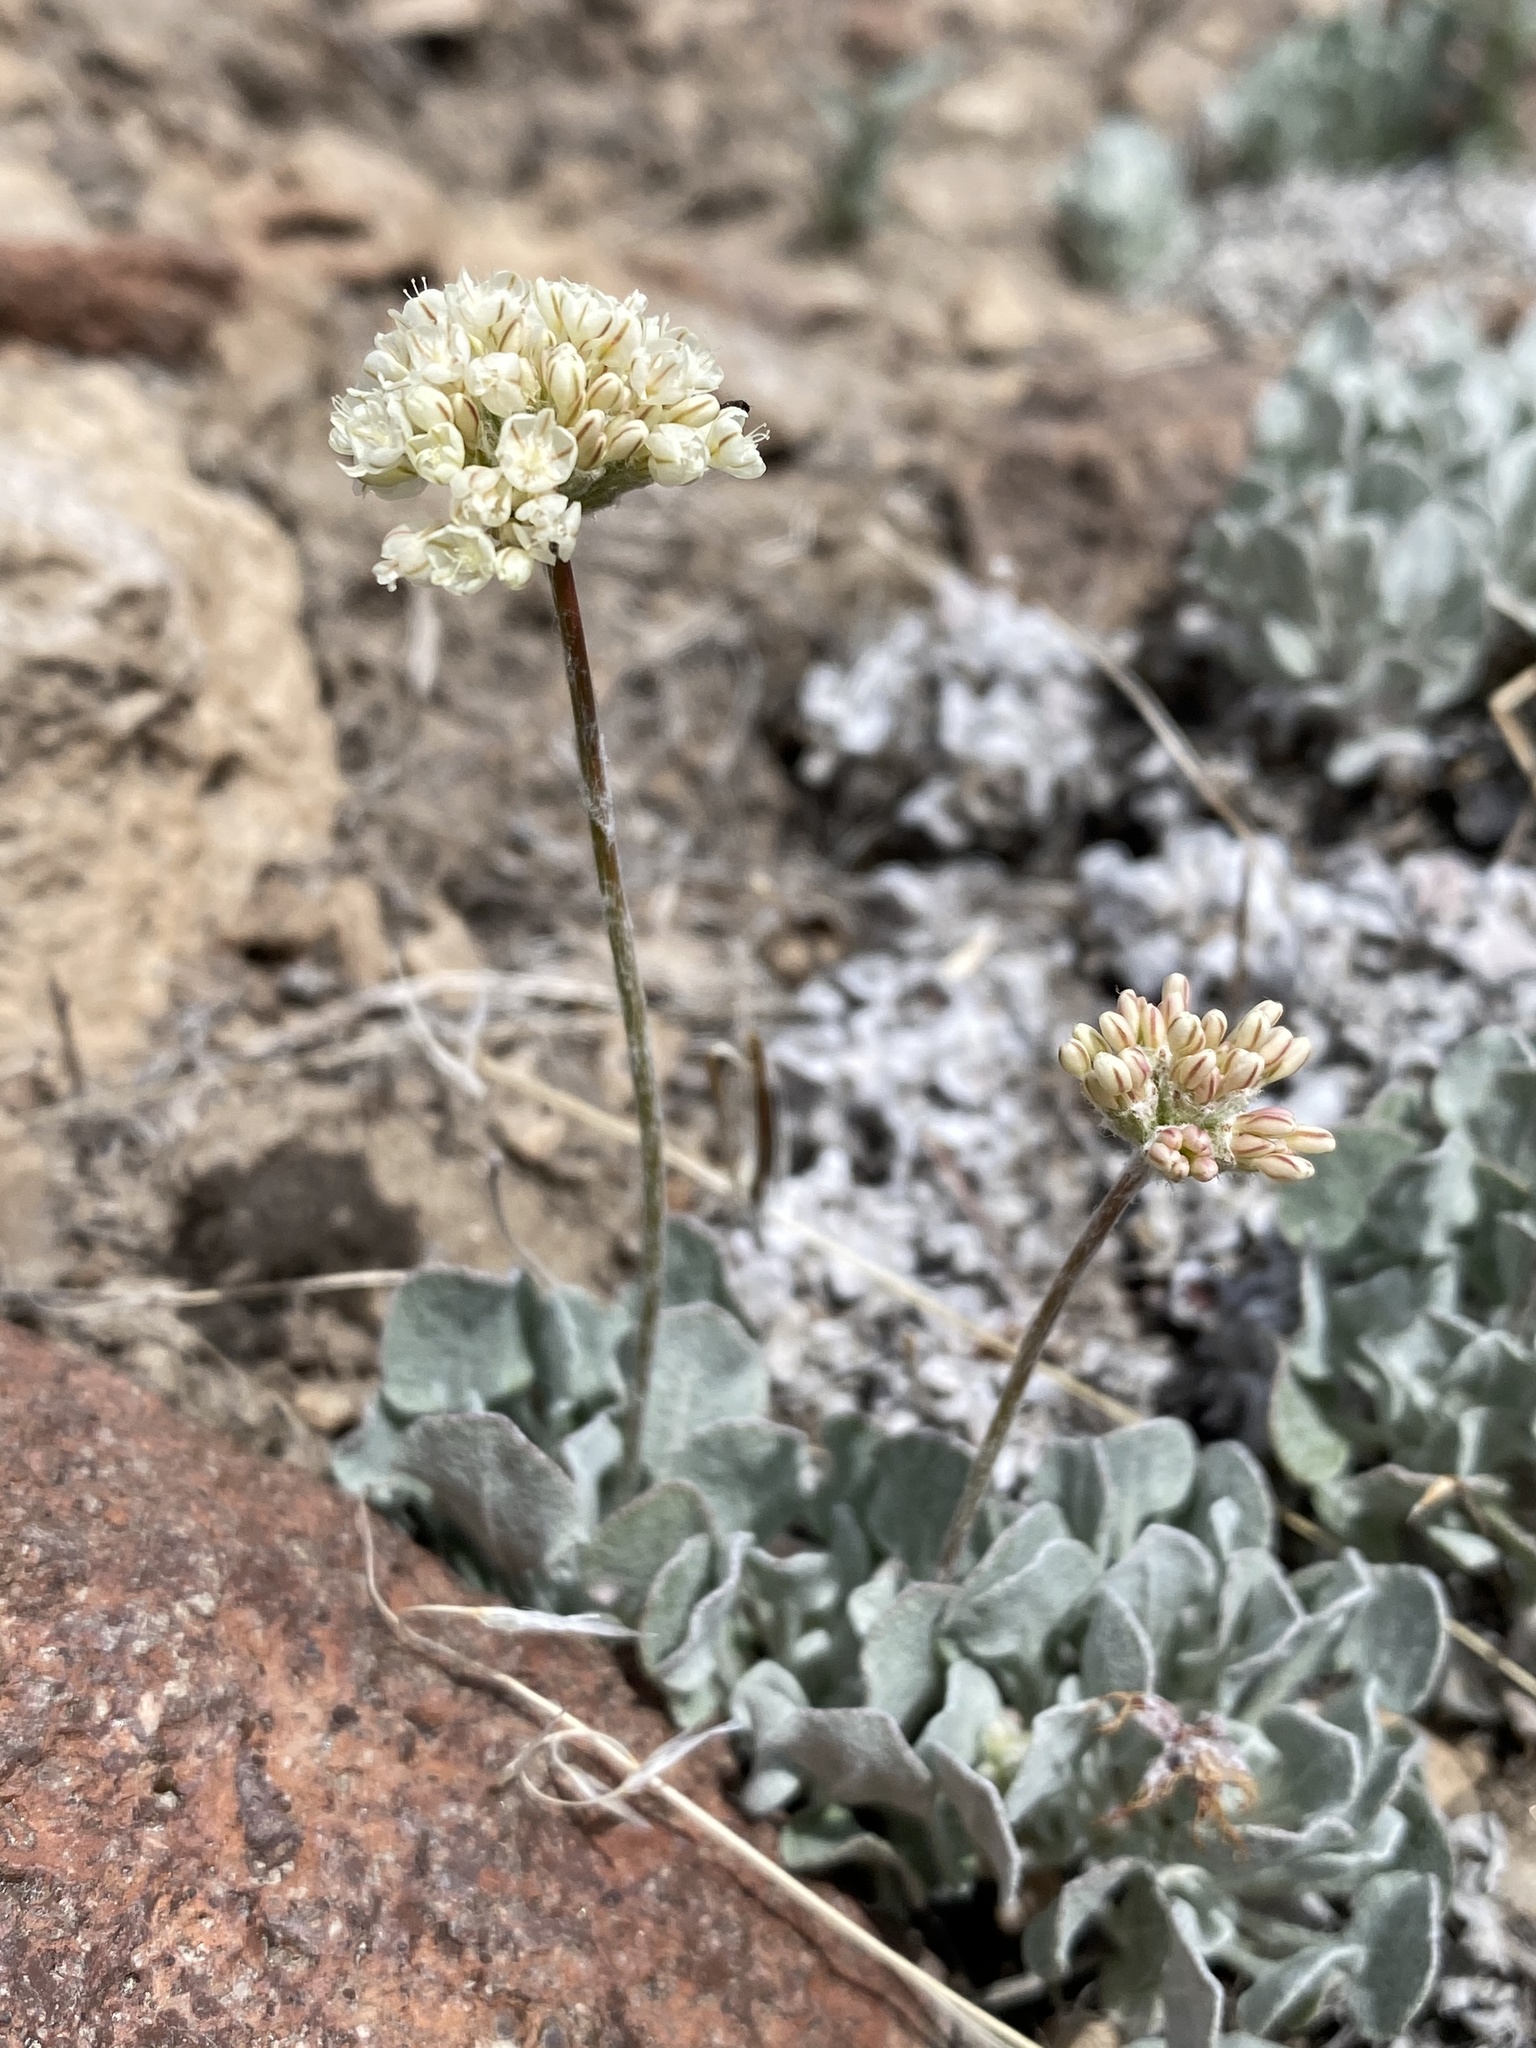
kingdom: Plantae
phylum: Tracheophyta
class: Magnoliopsida
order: Caryophyllales
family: Polygonaceae
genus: Eriogonum
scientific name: Eriogonum ovalifolium
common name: Cushion buckwheat
